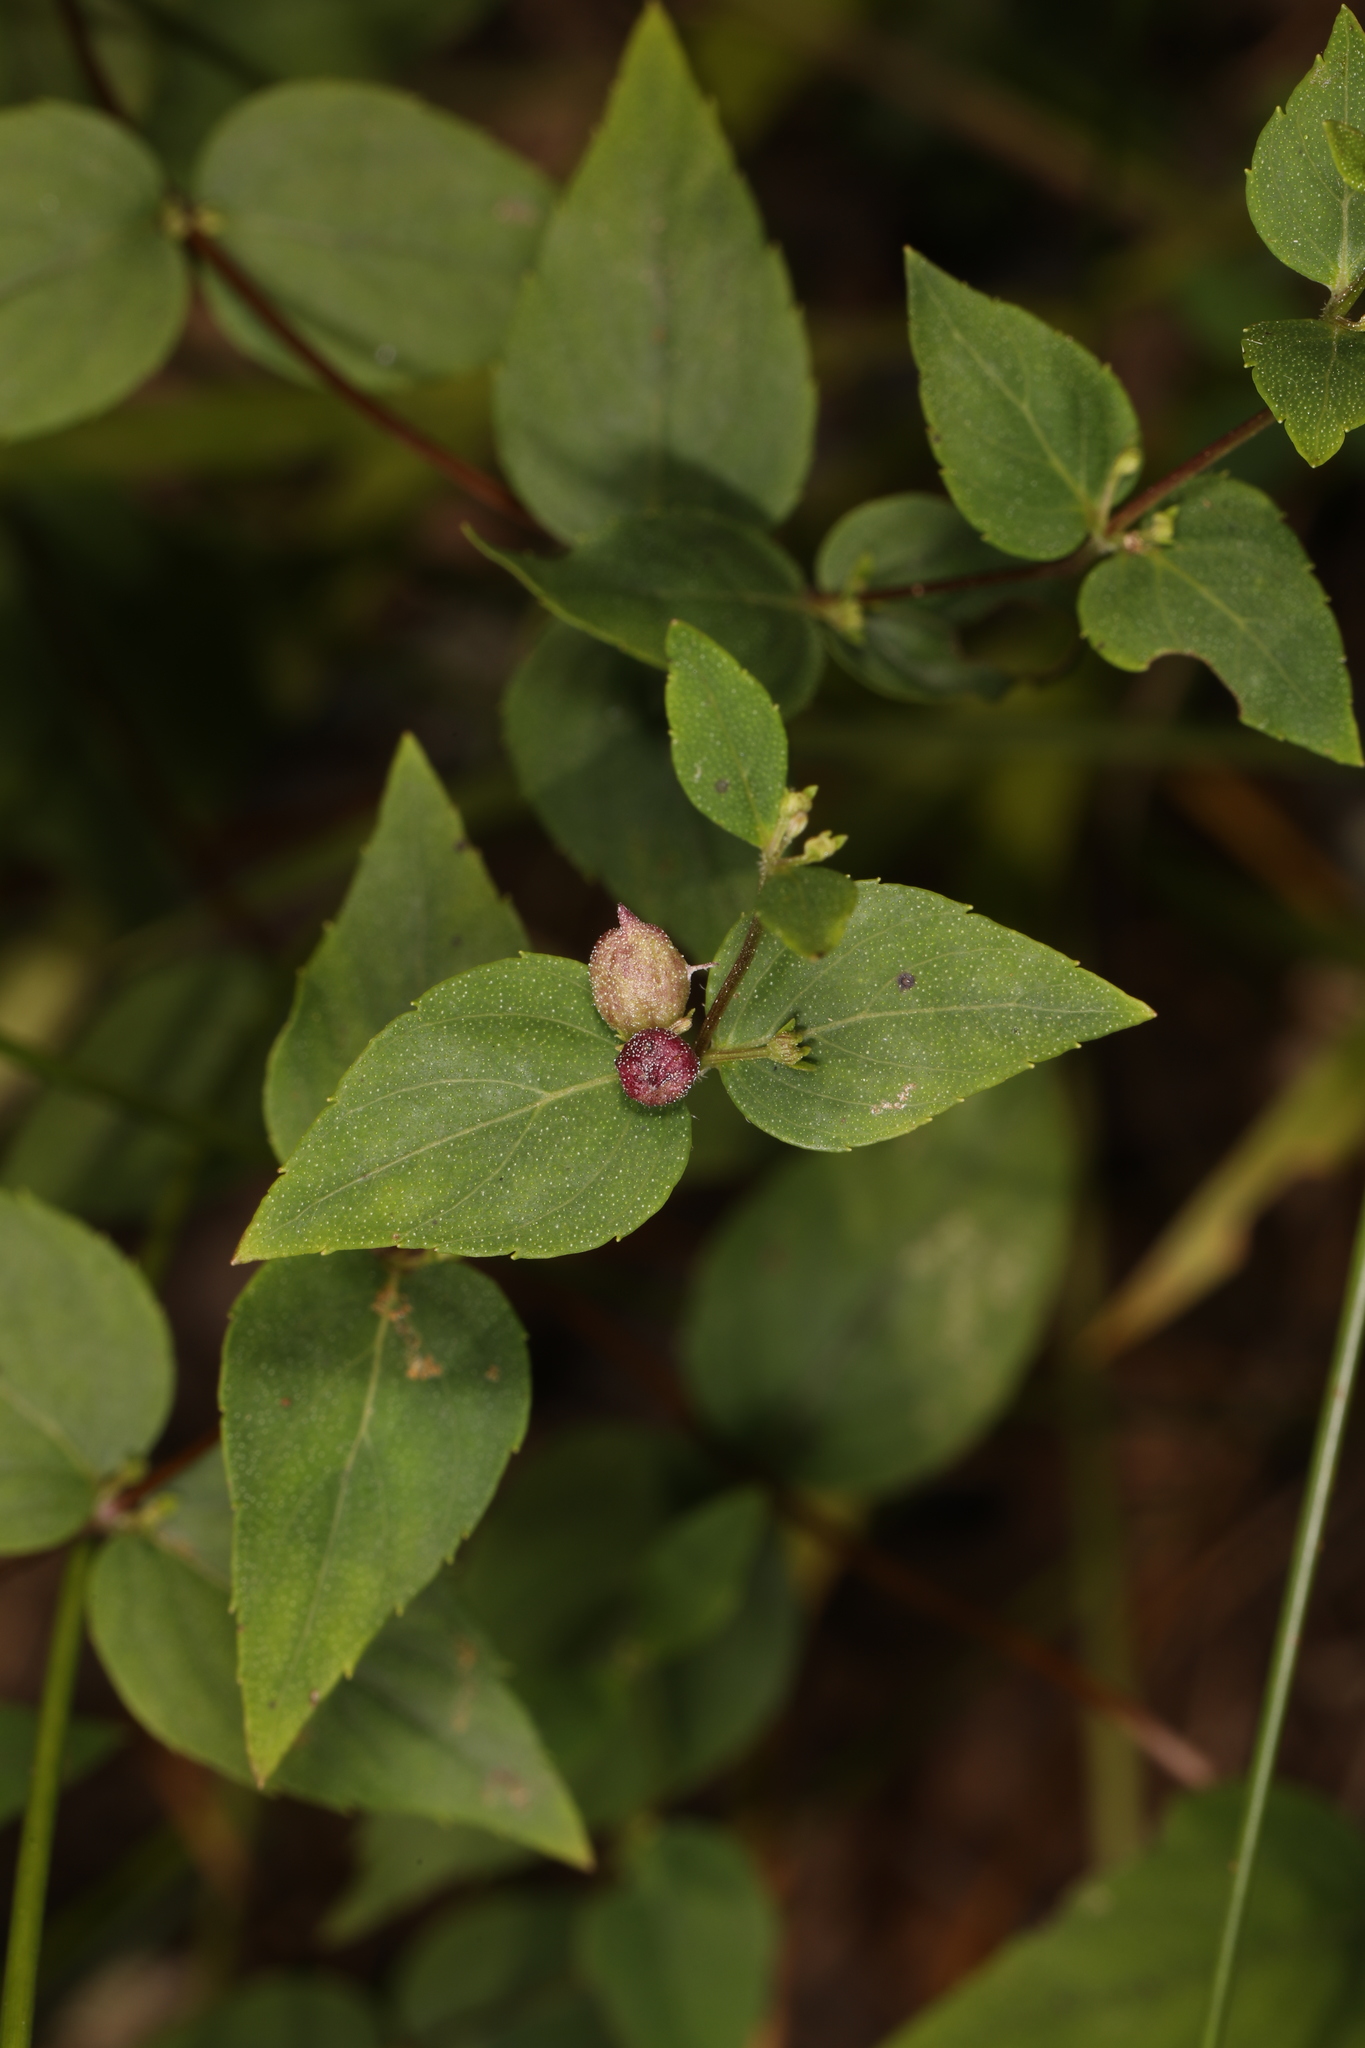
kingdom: Plantae
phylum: Tracheophyta
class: Magnoliopsida
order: Lamiales
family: Lamiaceae
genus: Cunila
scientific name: Cunila origanoides
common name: American dittany
